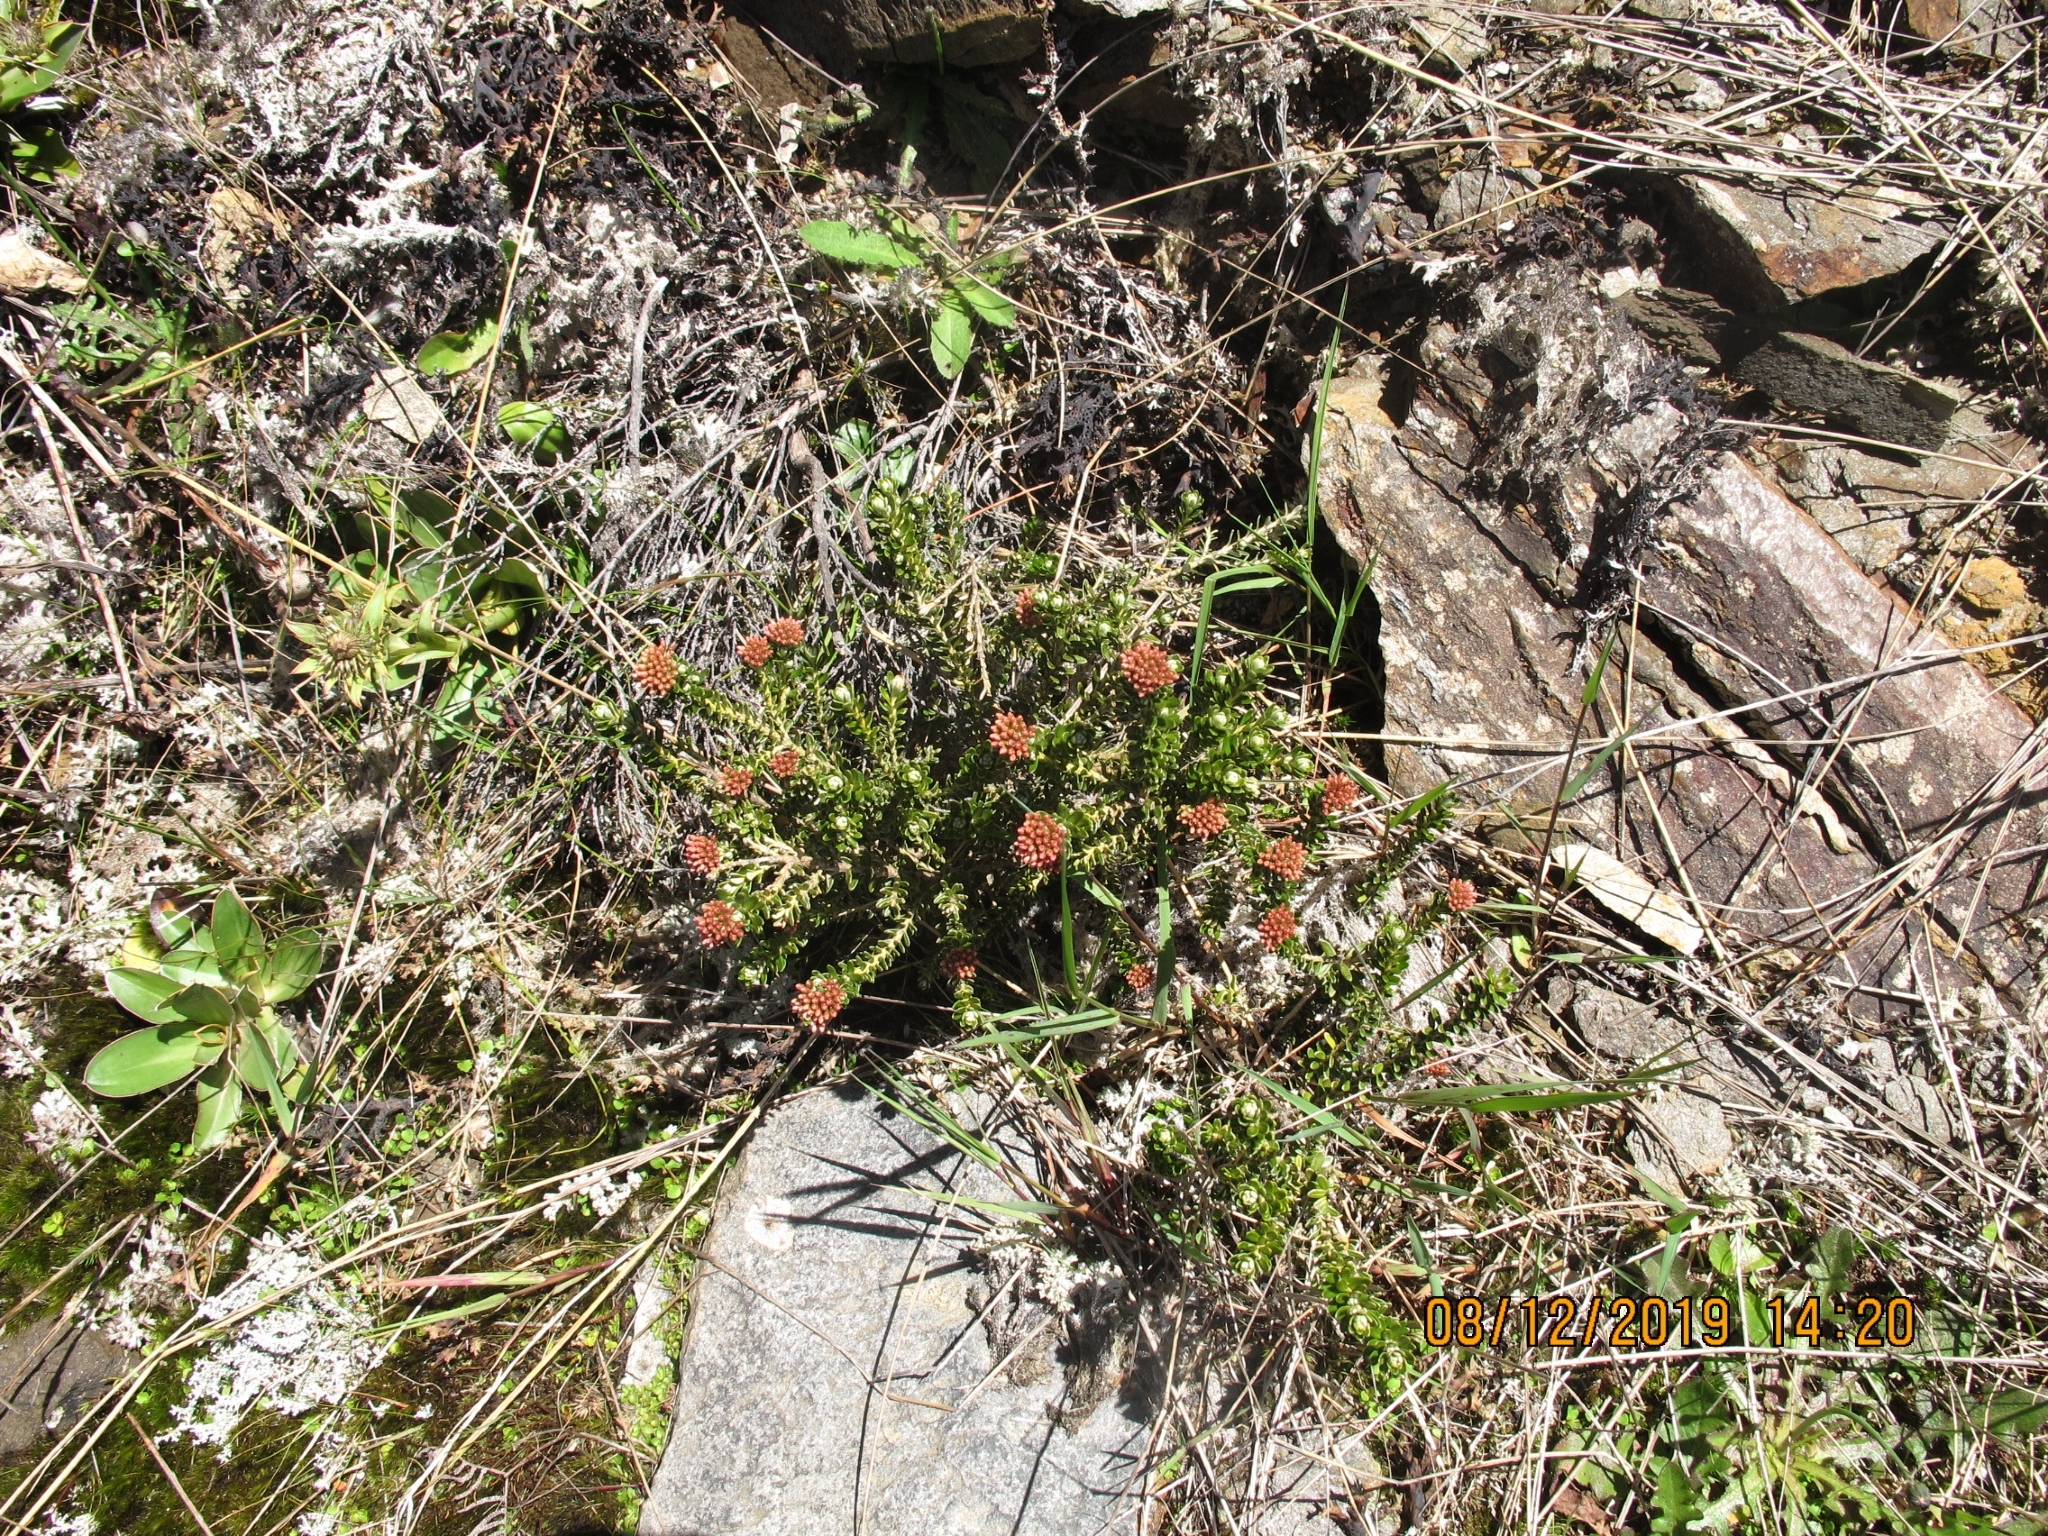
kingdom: Plantae
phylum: Tracheophyta
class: Magnoliopsida
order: Asterales
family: Asteraceae
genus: Ozothamnus
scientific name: Ozothamnus leptophyllus
